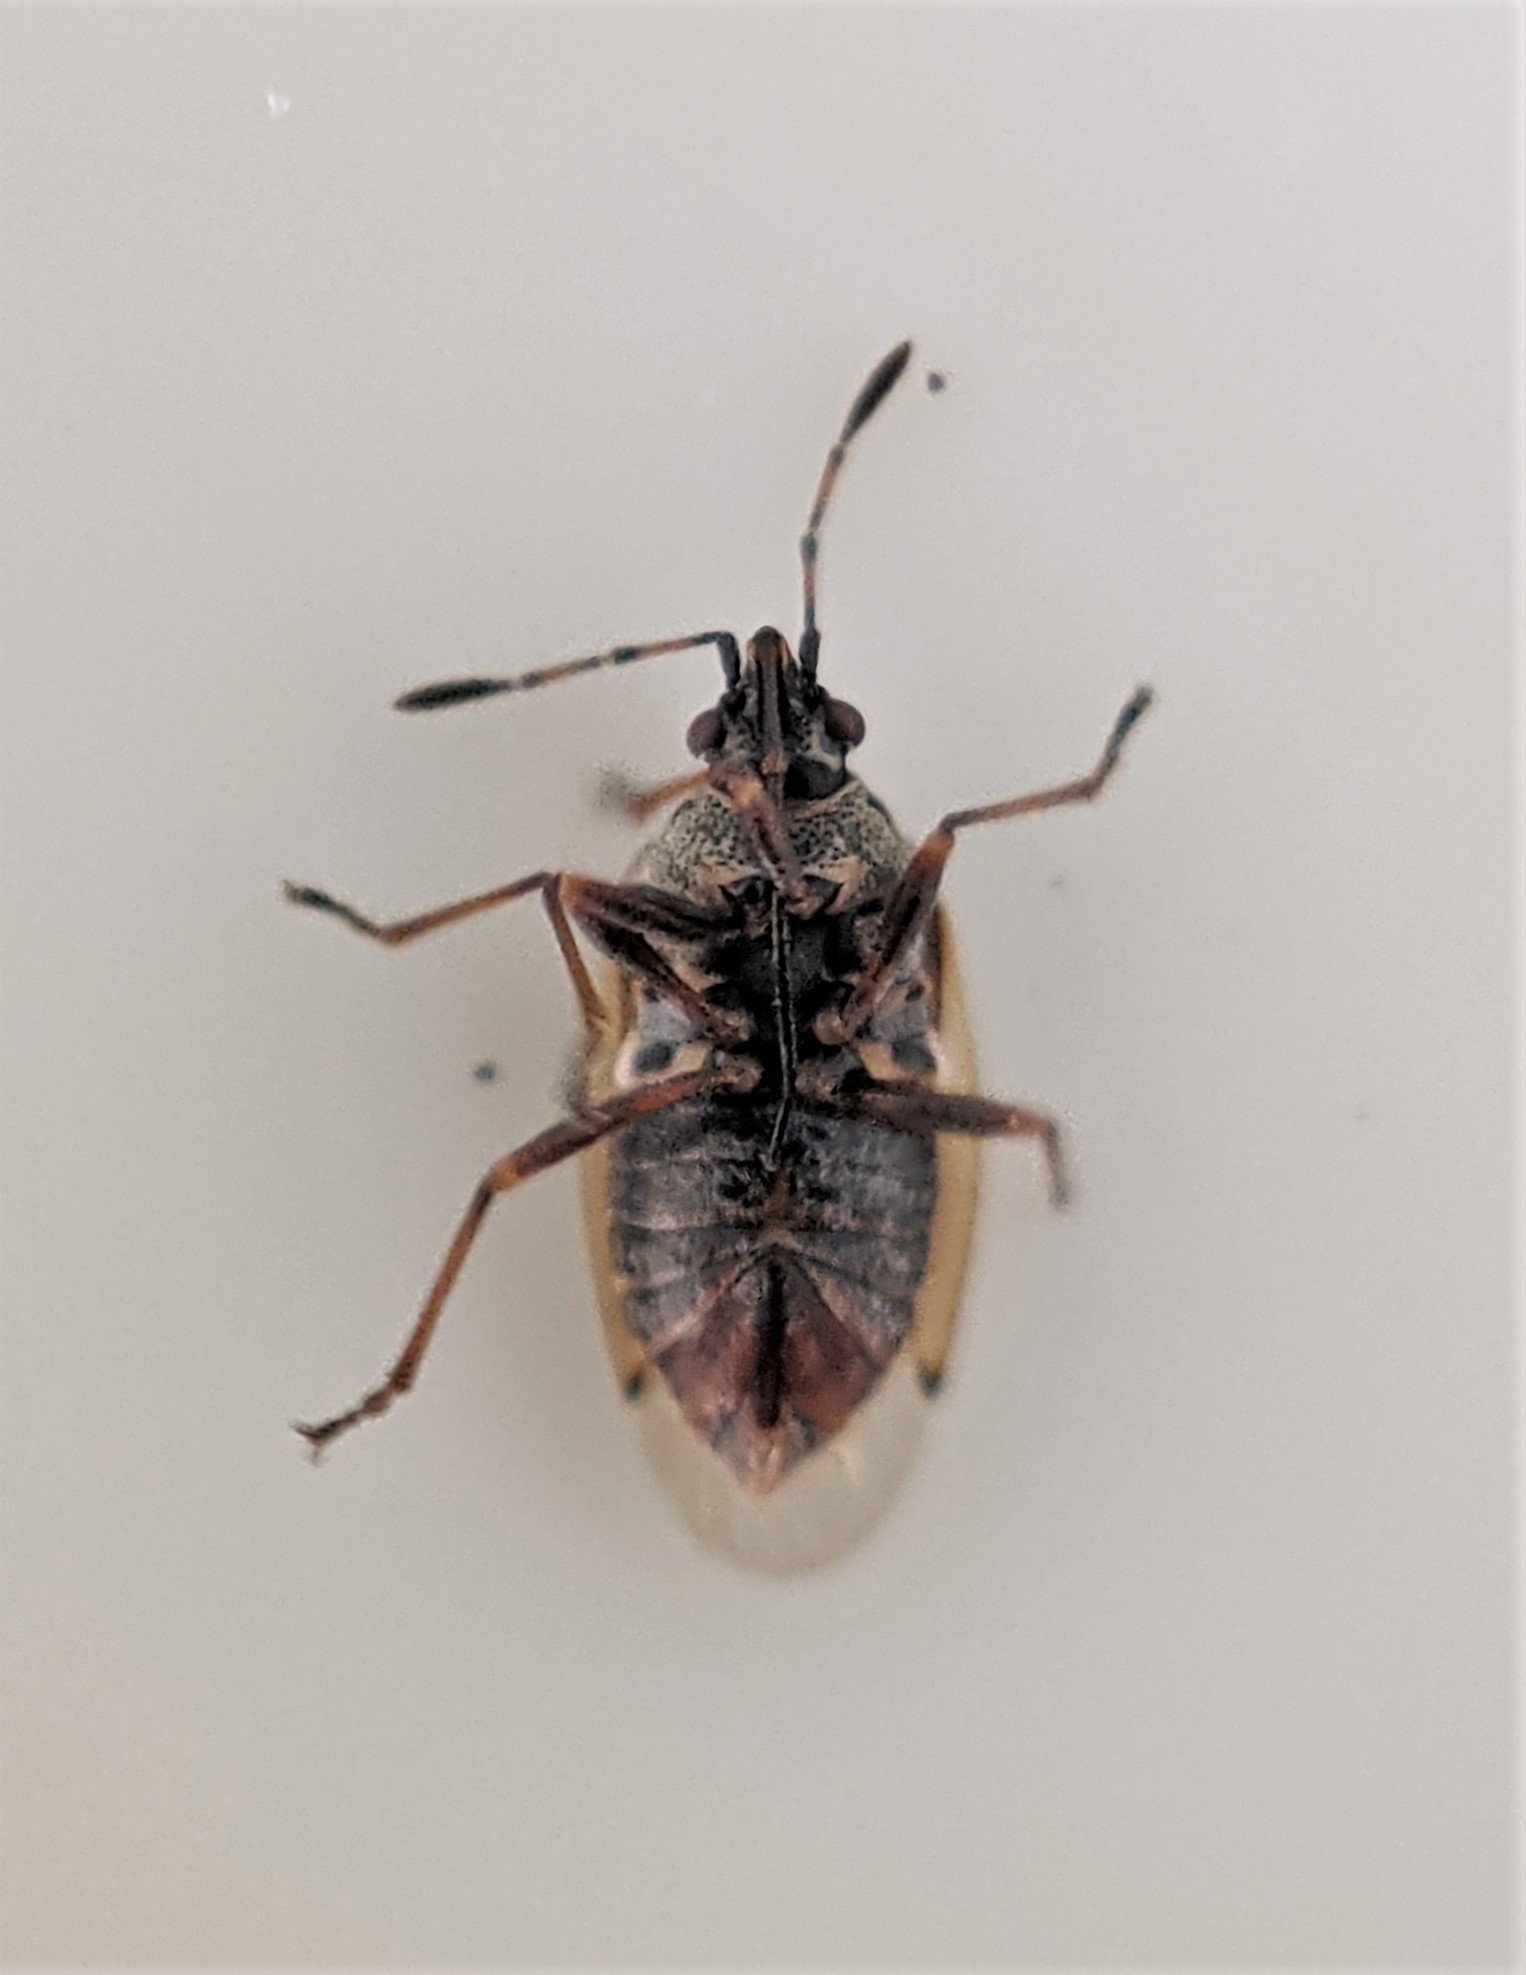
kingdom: Animalia
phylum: Arthropoda
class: Insecta
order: Hemiptera
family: Lygaeidae
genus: Kleidocerys
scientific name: Kleidocerys resedae
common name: Birch catkin bug
